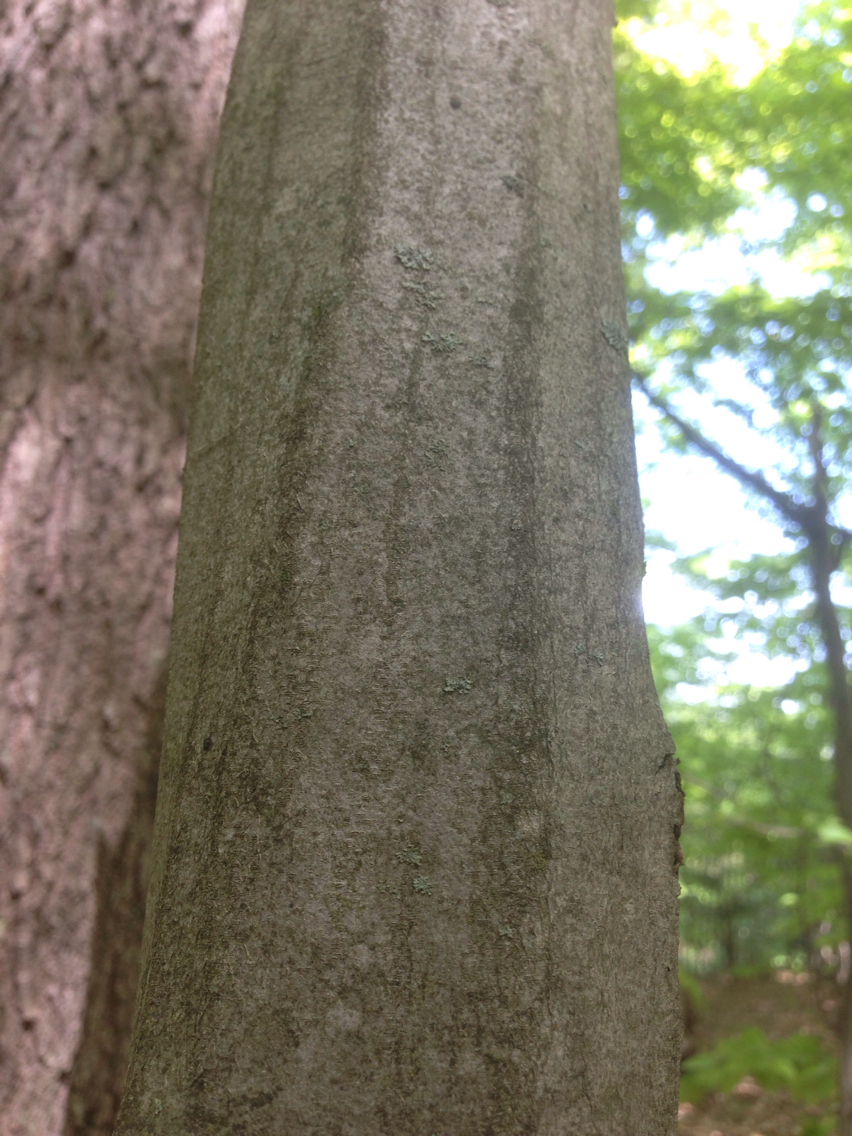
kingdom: Plantae
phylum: Tracheophyta
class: Magnoliopsida
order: Fagales
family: Betulaceae
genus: Carpinus
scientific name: Carpinus caroliniana
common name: American hornbeam
